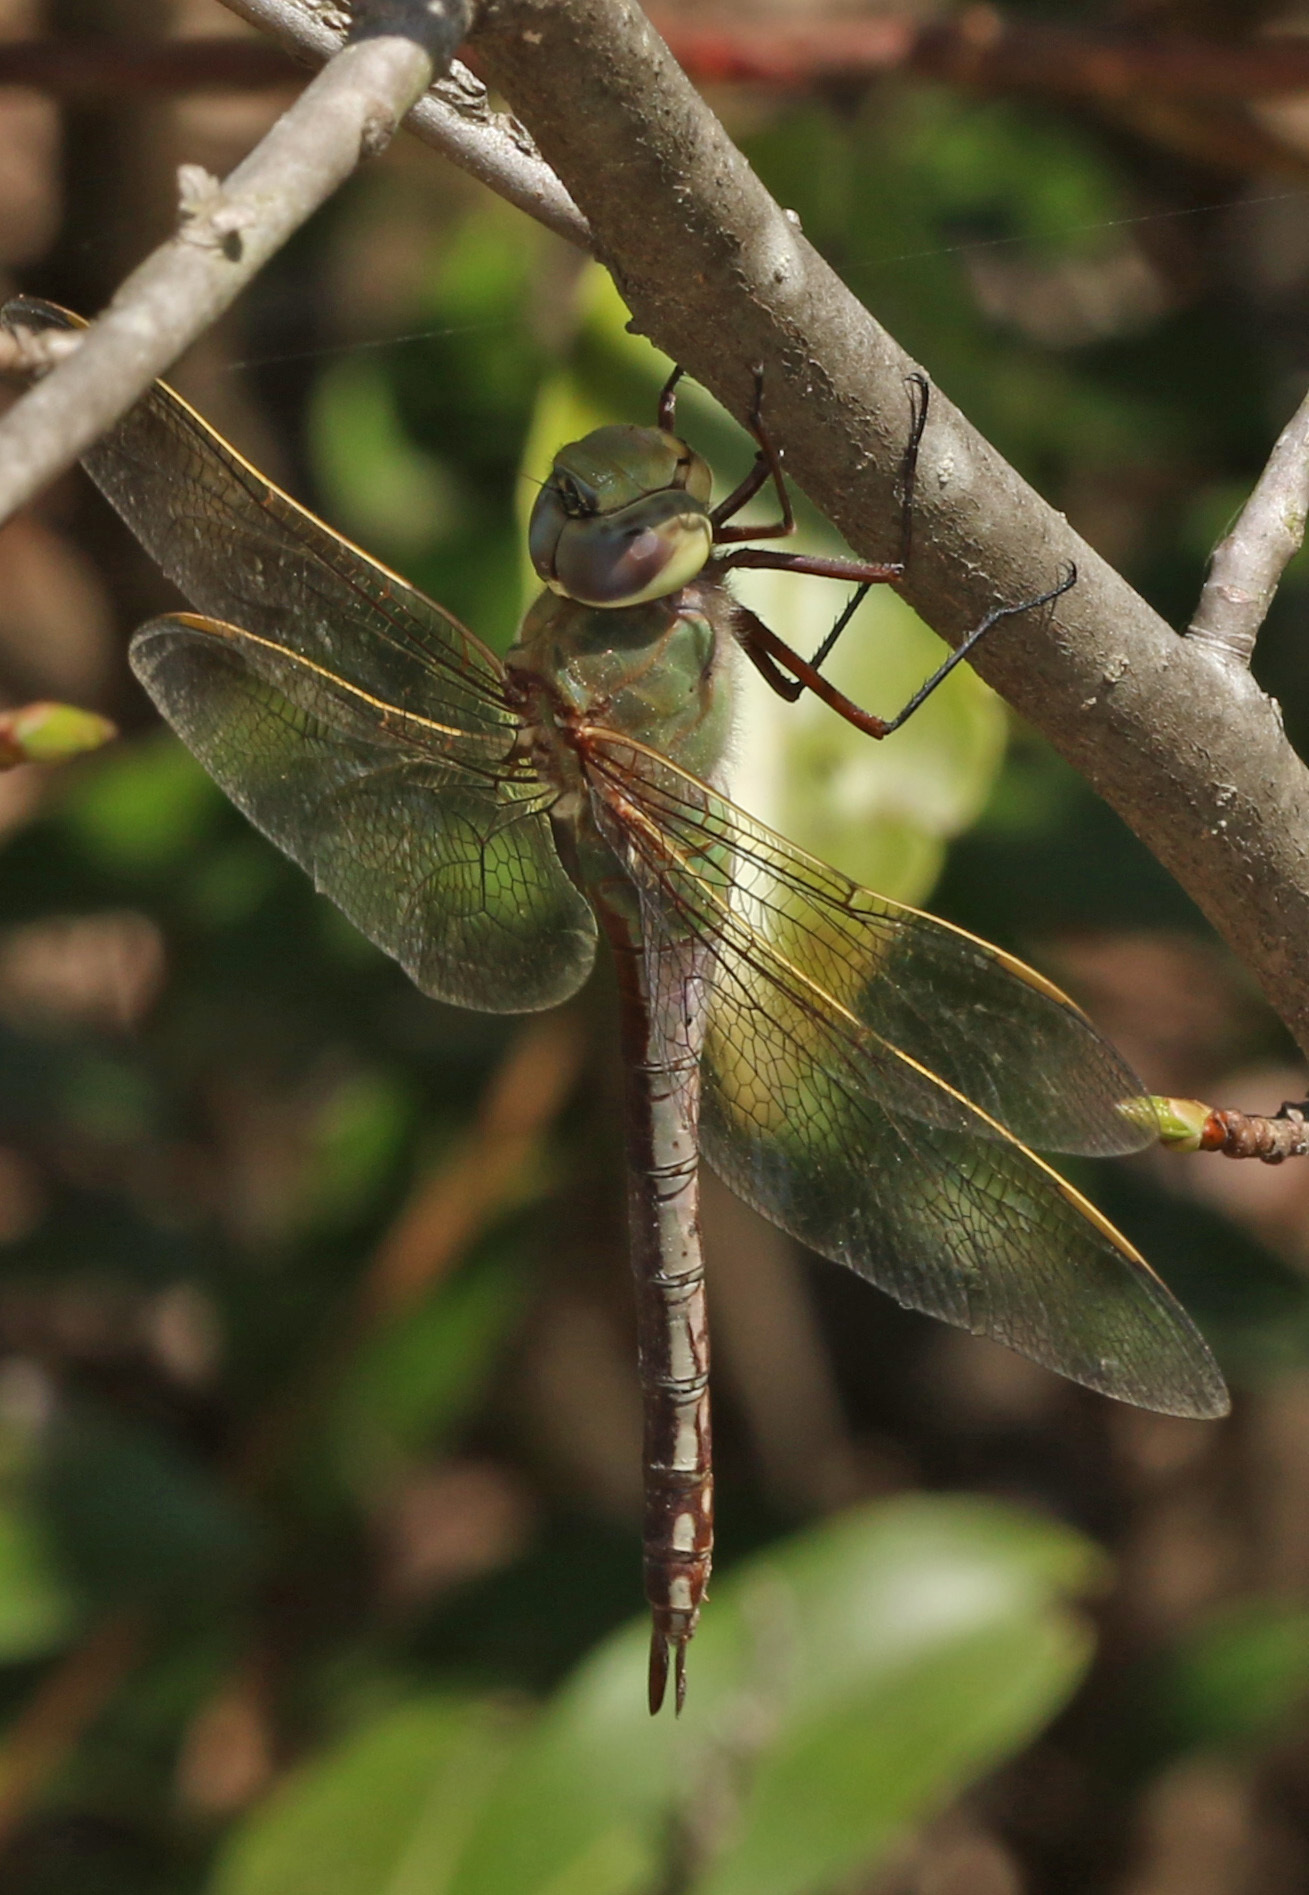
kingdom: Animalia
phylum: Arthropoda
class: Insecta
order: Odonata
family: Aeshnidae
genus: Anax
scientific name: Anax junius
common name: Common green darner
